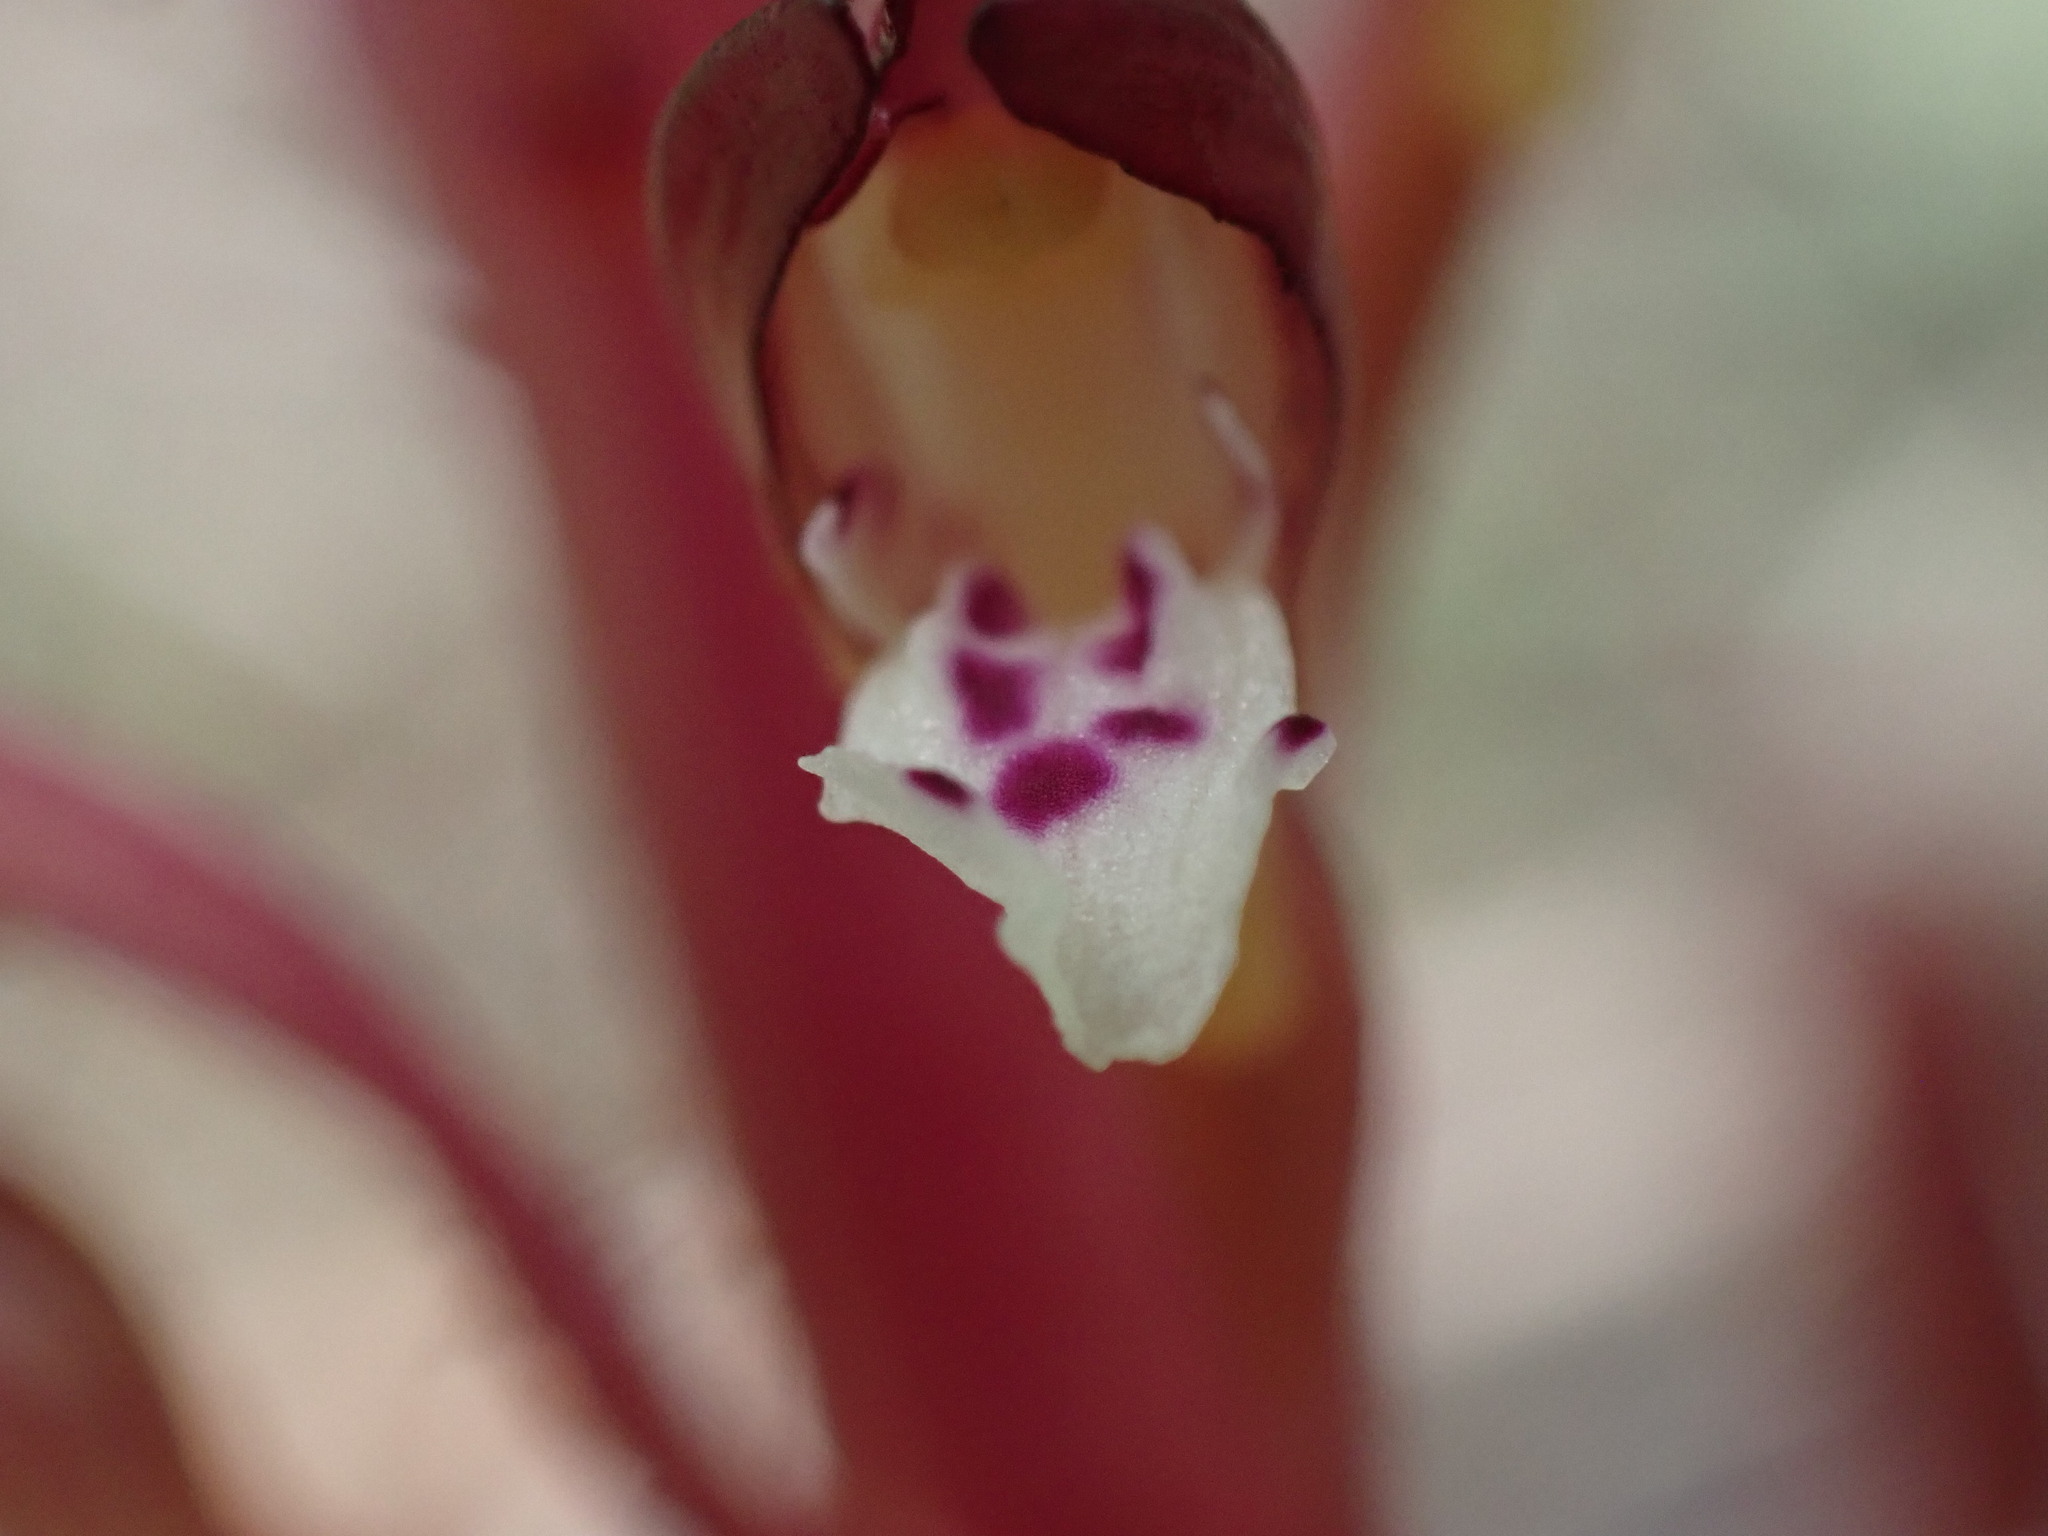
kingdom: Plantae
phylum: Tracheophyta
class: Liliopsida
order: Asparagales
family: Orchidaceae
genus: Corallorhiza
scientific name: Corallorhiza maculata
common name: Spotted coralroot
